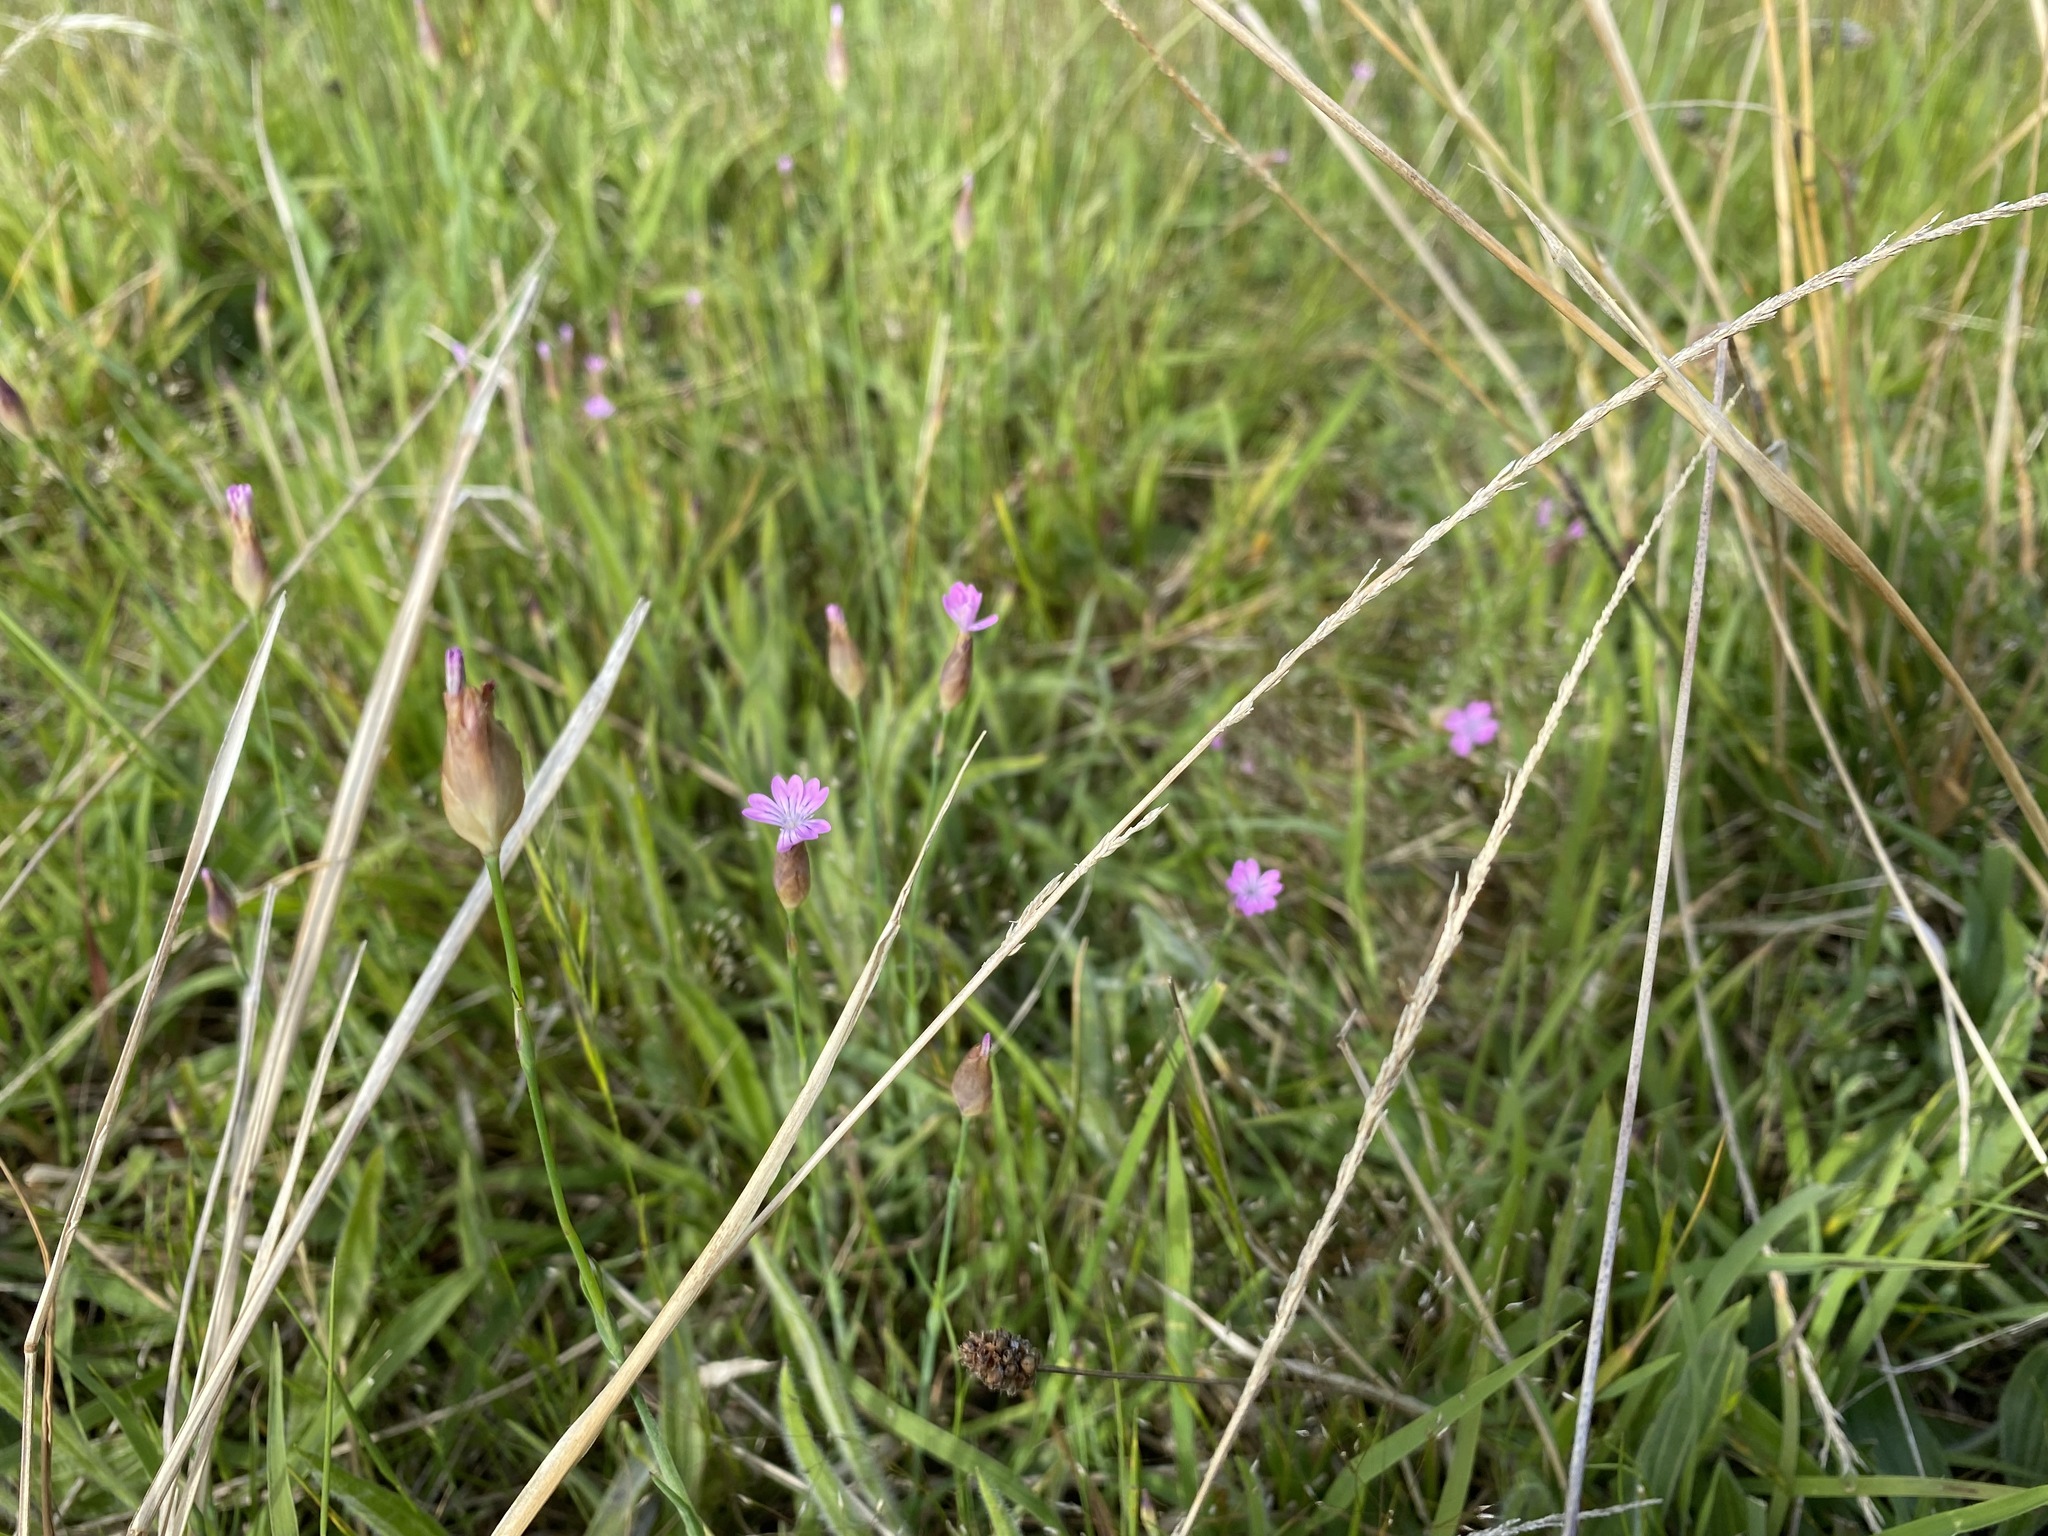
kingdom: Plantae
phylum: Tracheophyta
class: Magnoliopsida
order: Caryophyllales
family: Caryophyllaceae
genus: Petrorhagia
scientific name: Petrorhagia dubia
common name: Hairypink
